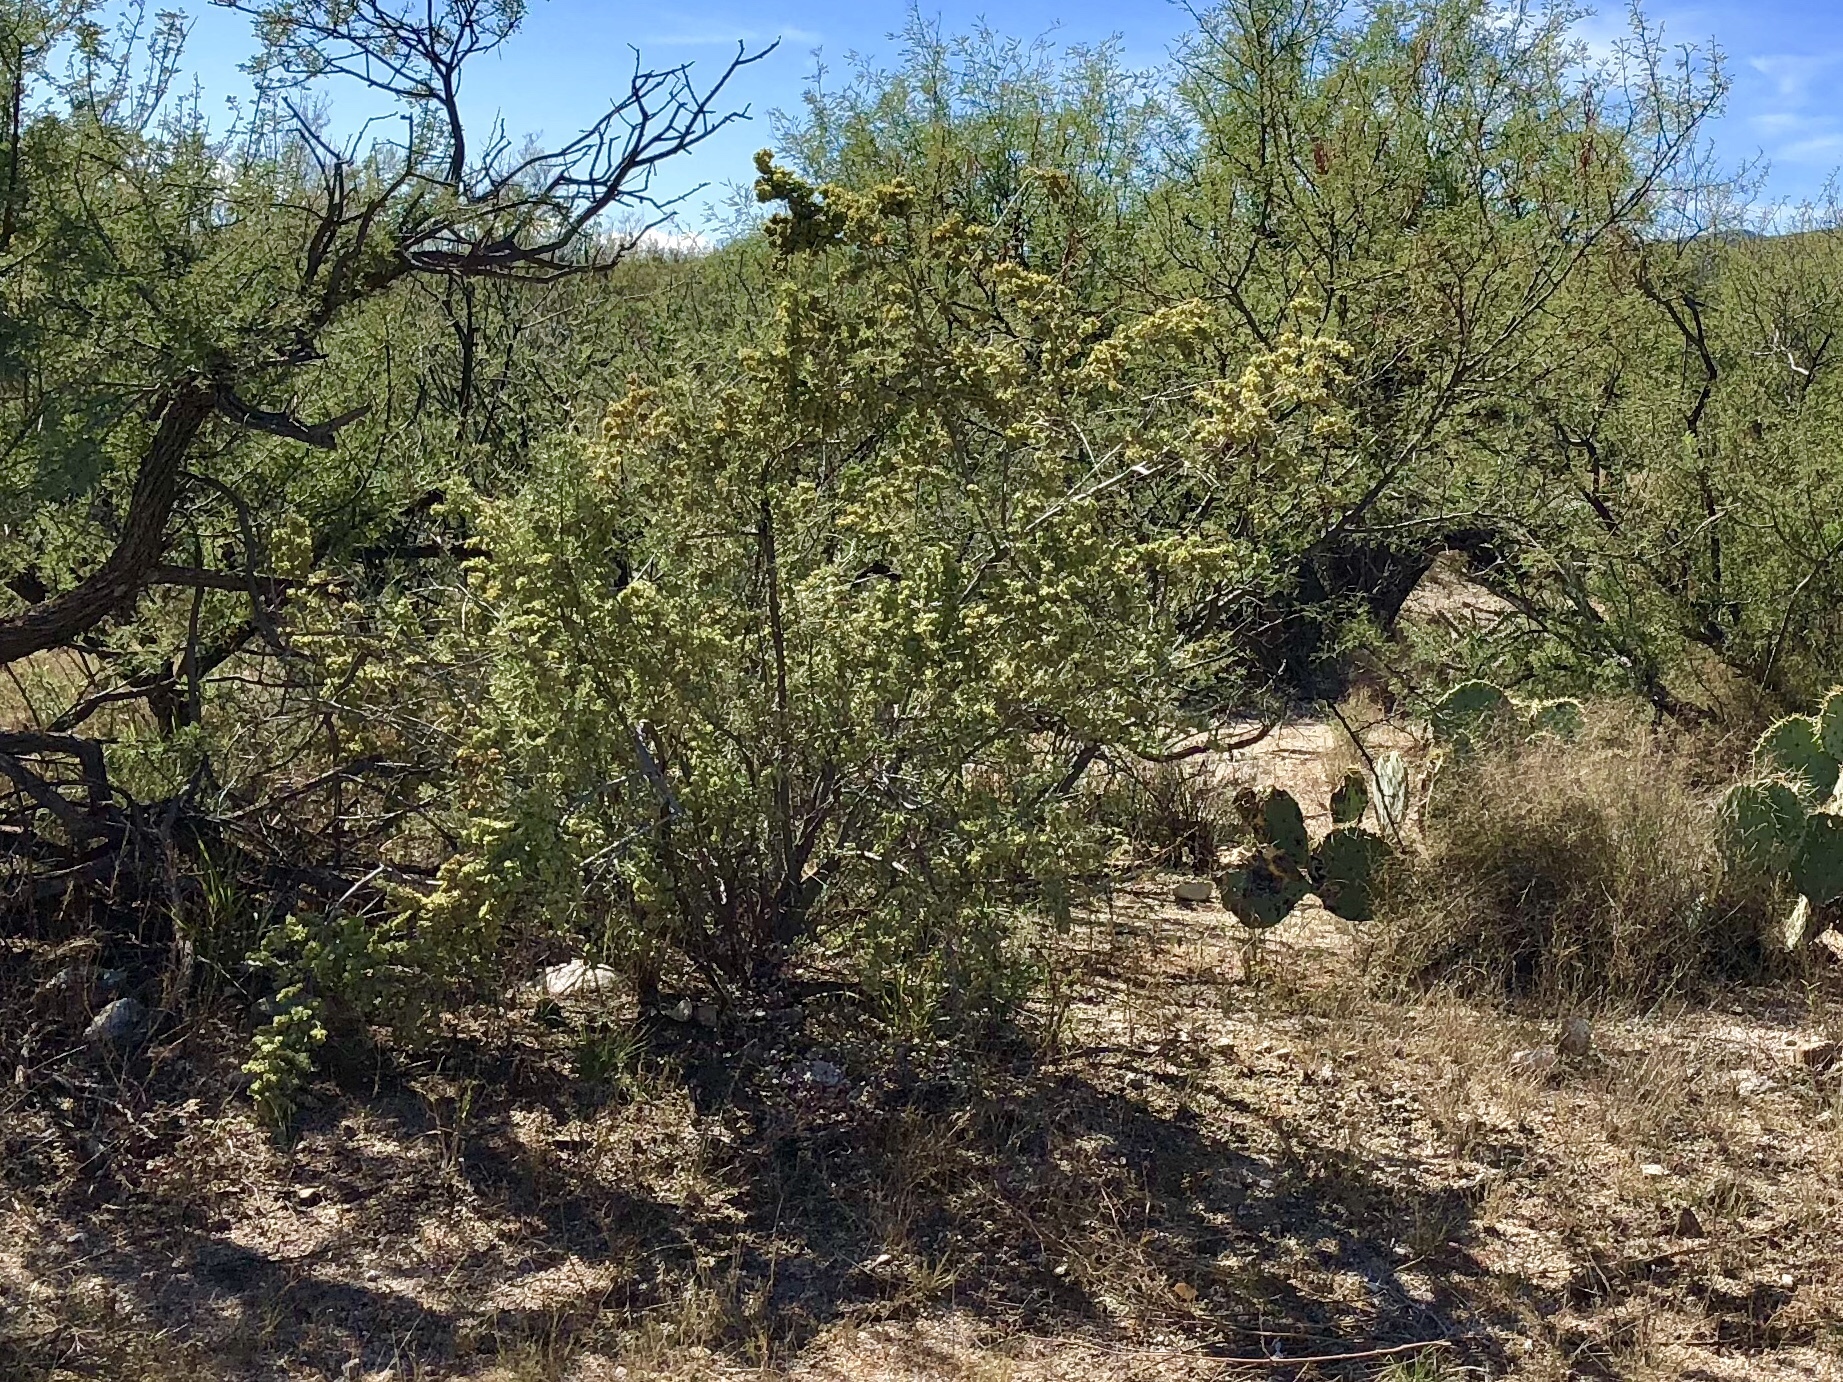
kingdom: Plantae
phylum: Tracheophyta
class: Magnoliopsida
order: Caryophyllales
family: Amaranthaceae
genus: Atriplex
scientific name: Atriplex canescens
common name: Four-wing saltbush
